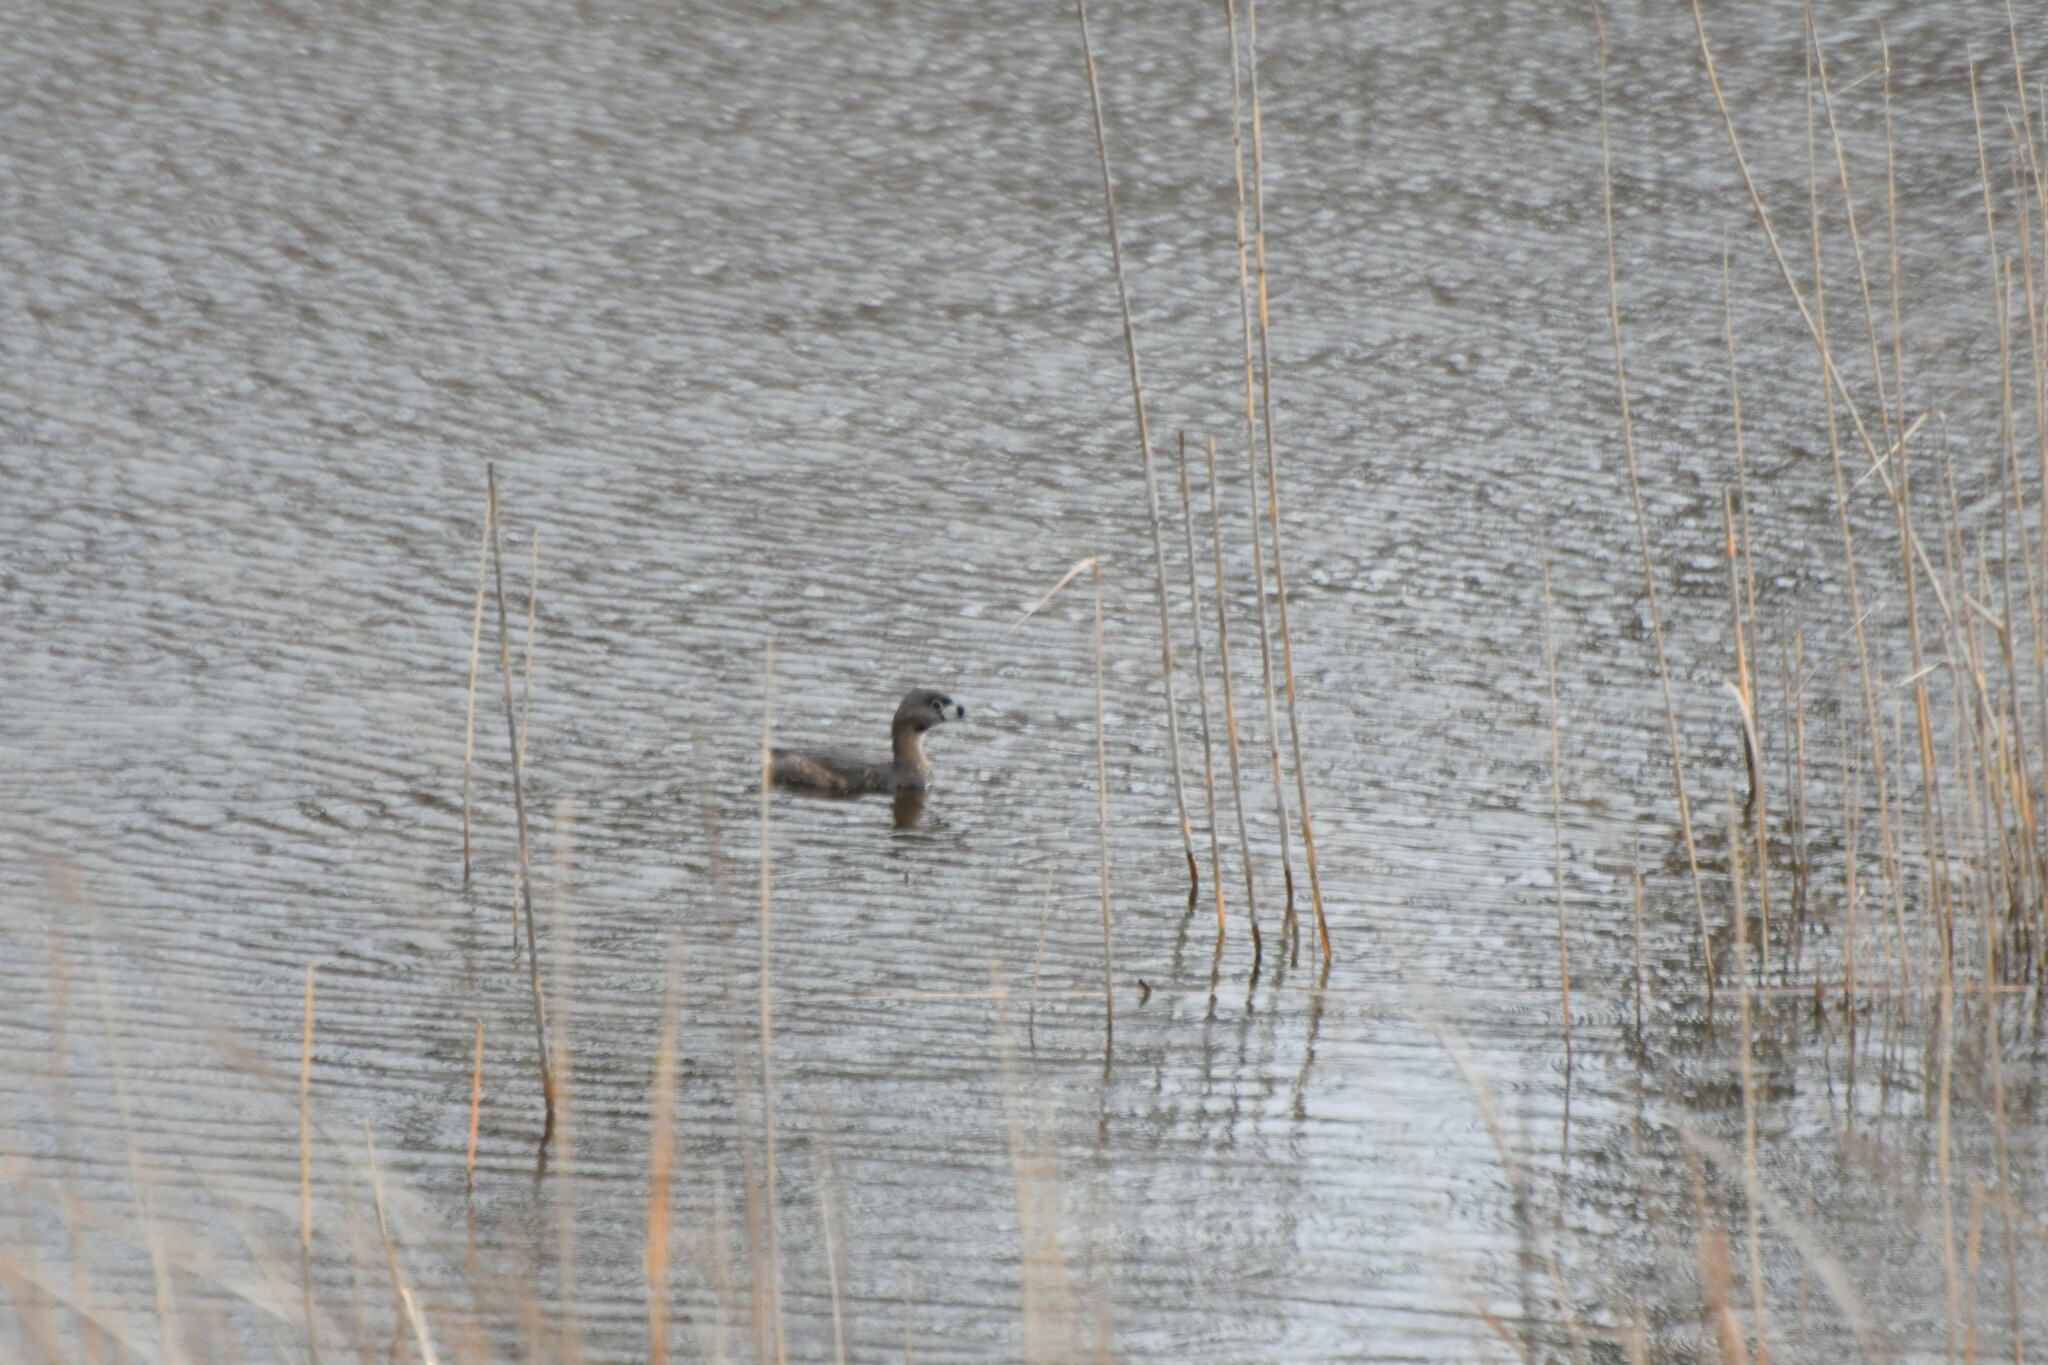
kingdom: Animalia
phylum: Chordata
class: Aves
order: Podicipediformes
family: Podicipedidae
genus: Podilymbus
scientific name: Podilymbus podiceps
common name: Pied-billed grebe
